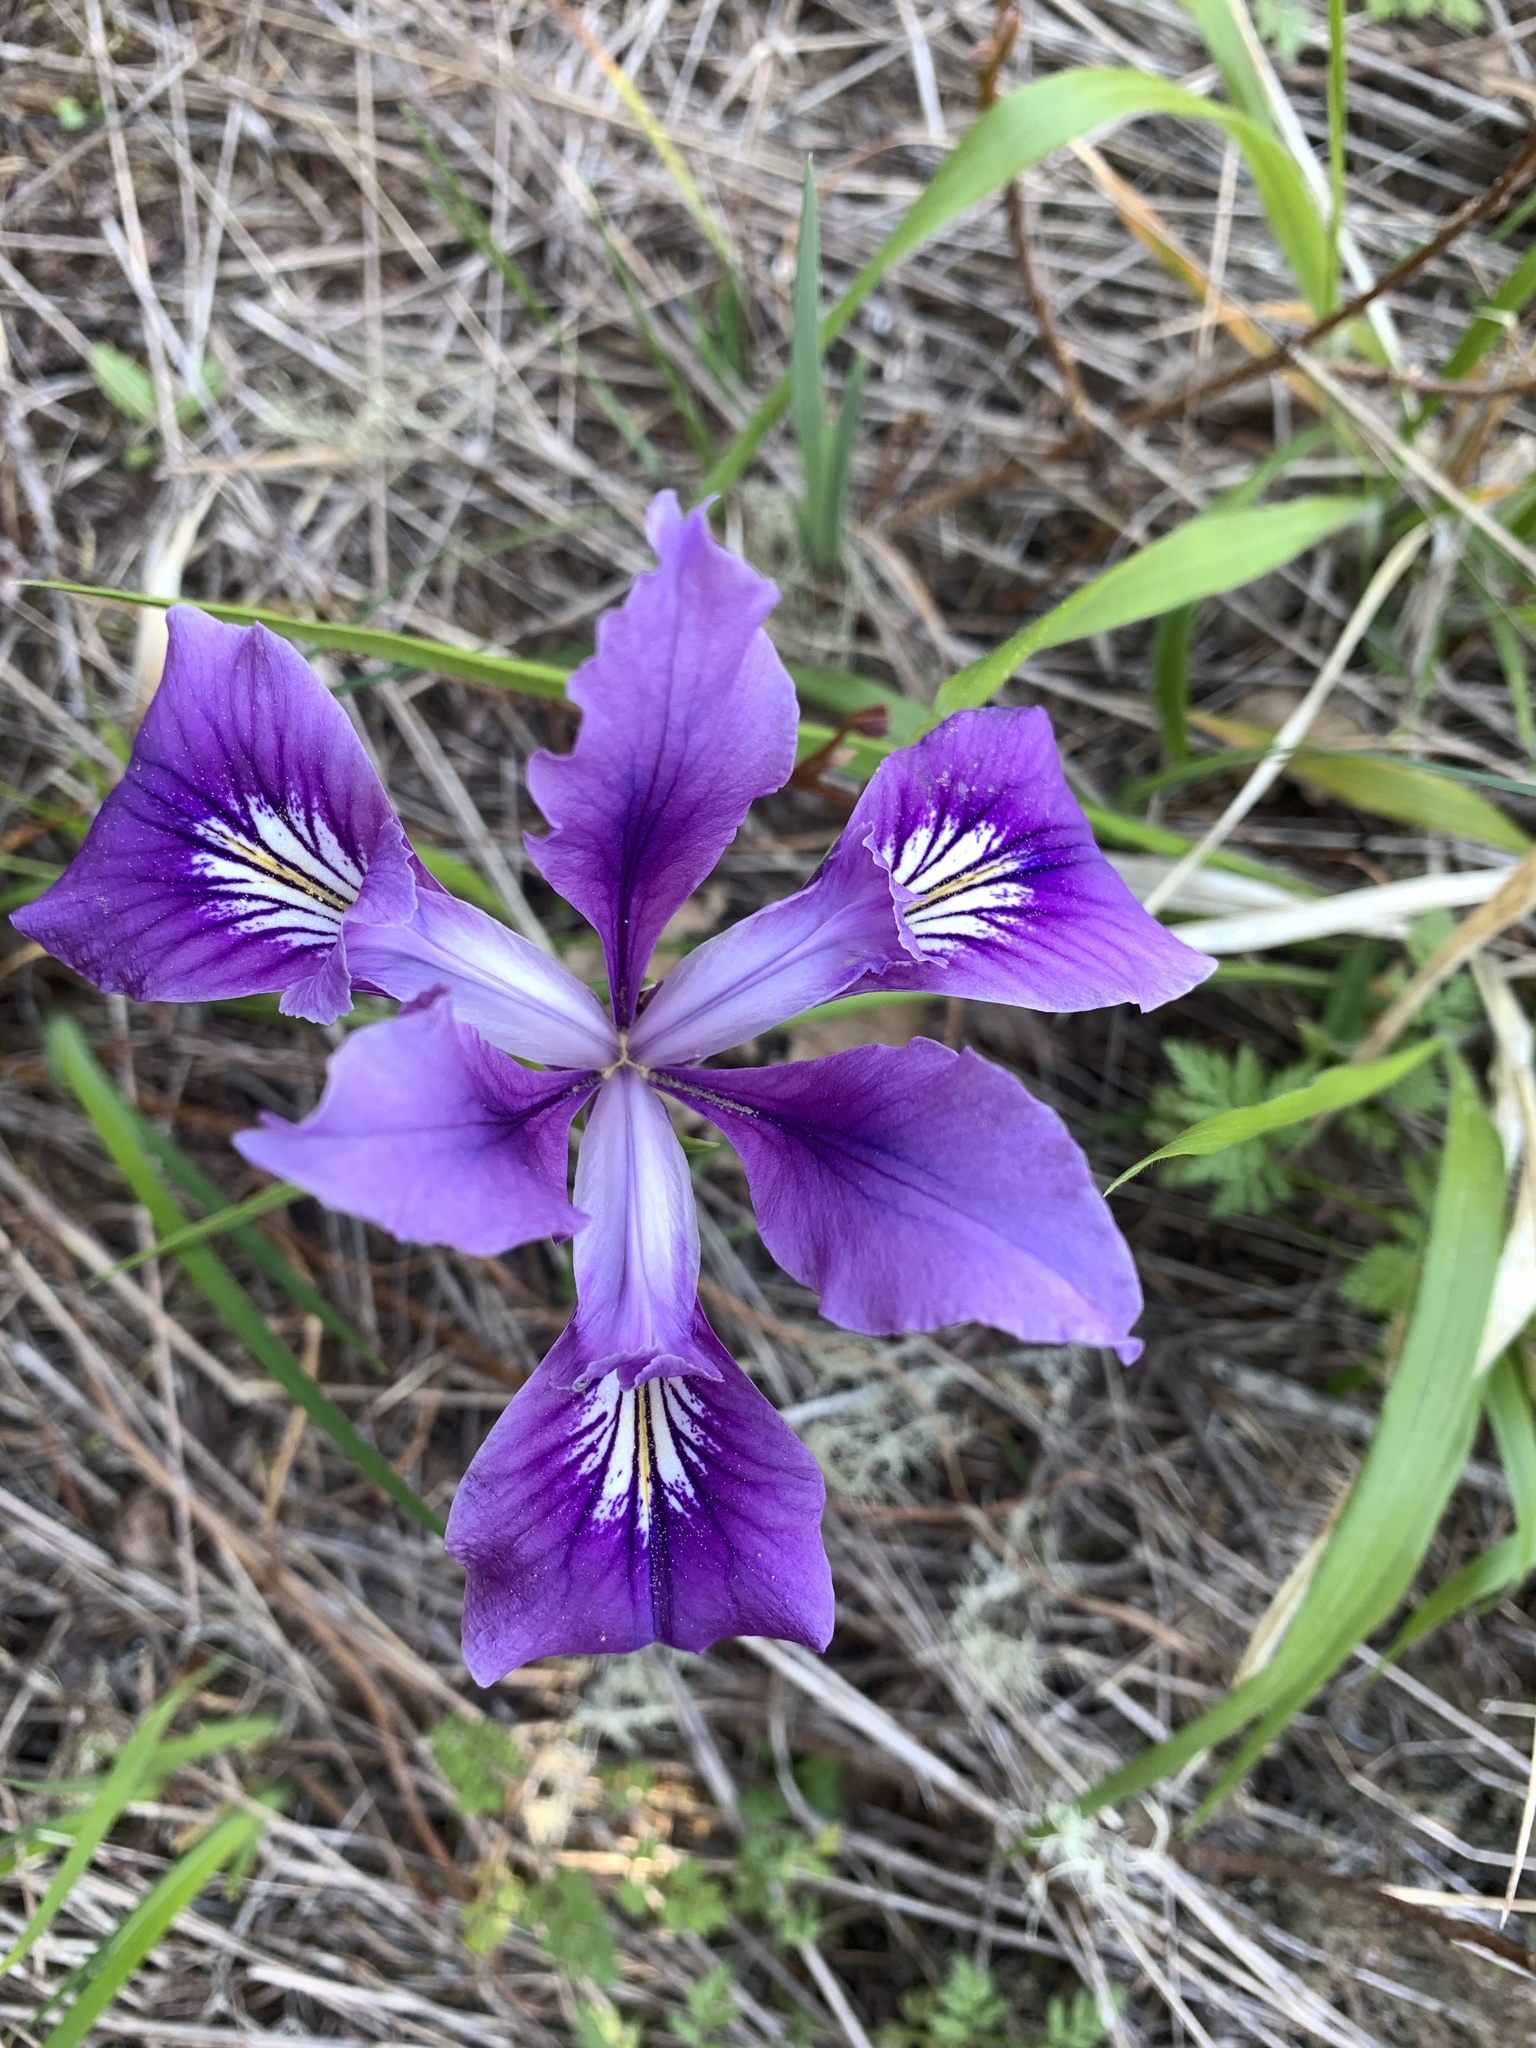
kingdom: Plantae
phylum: Tracheophyta
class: Liliopsida
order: Asparagales
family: Iridaceae
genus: Iris
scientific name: Iris tenax
